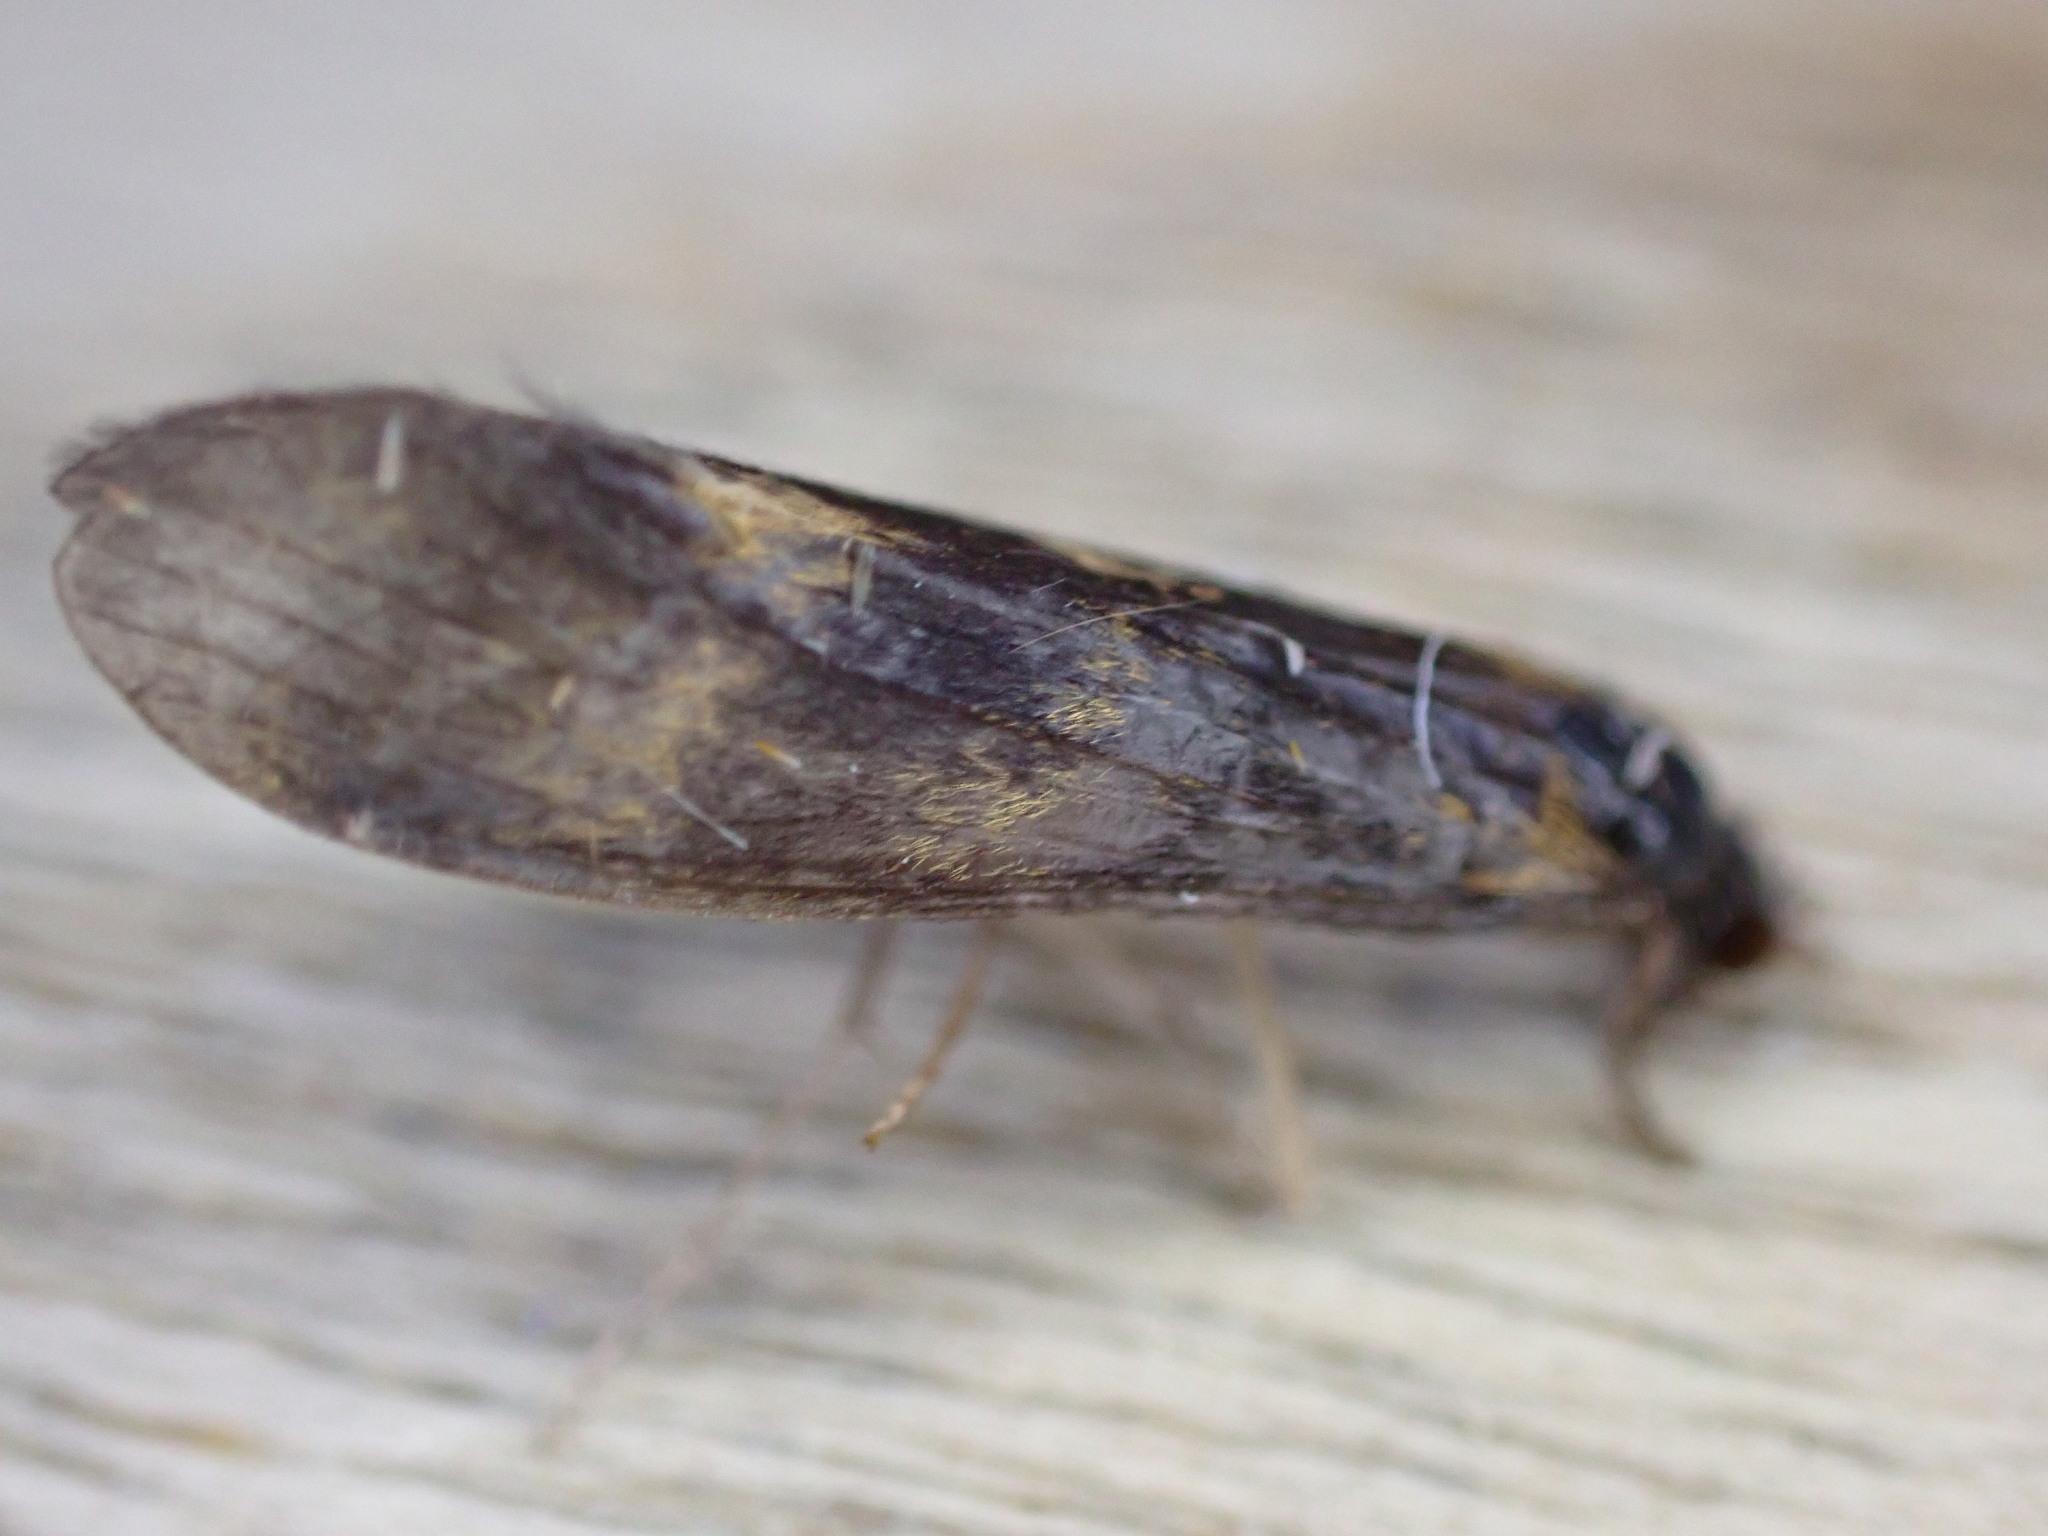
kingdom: Animalia
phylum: Arthropoda
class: Insecta
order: Trichoptera
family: Leptoceridae
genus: Mystacides
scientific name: Mystacides longicornis
